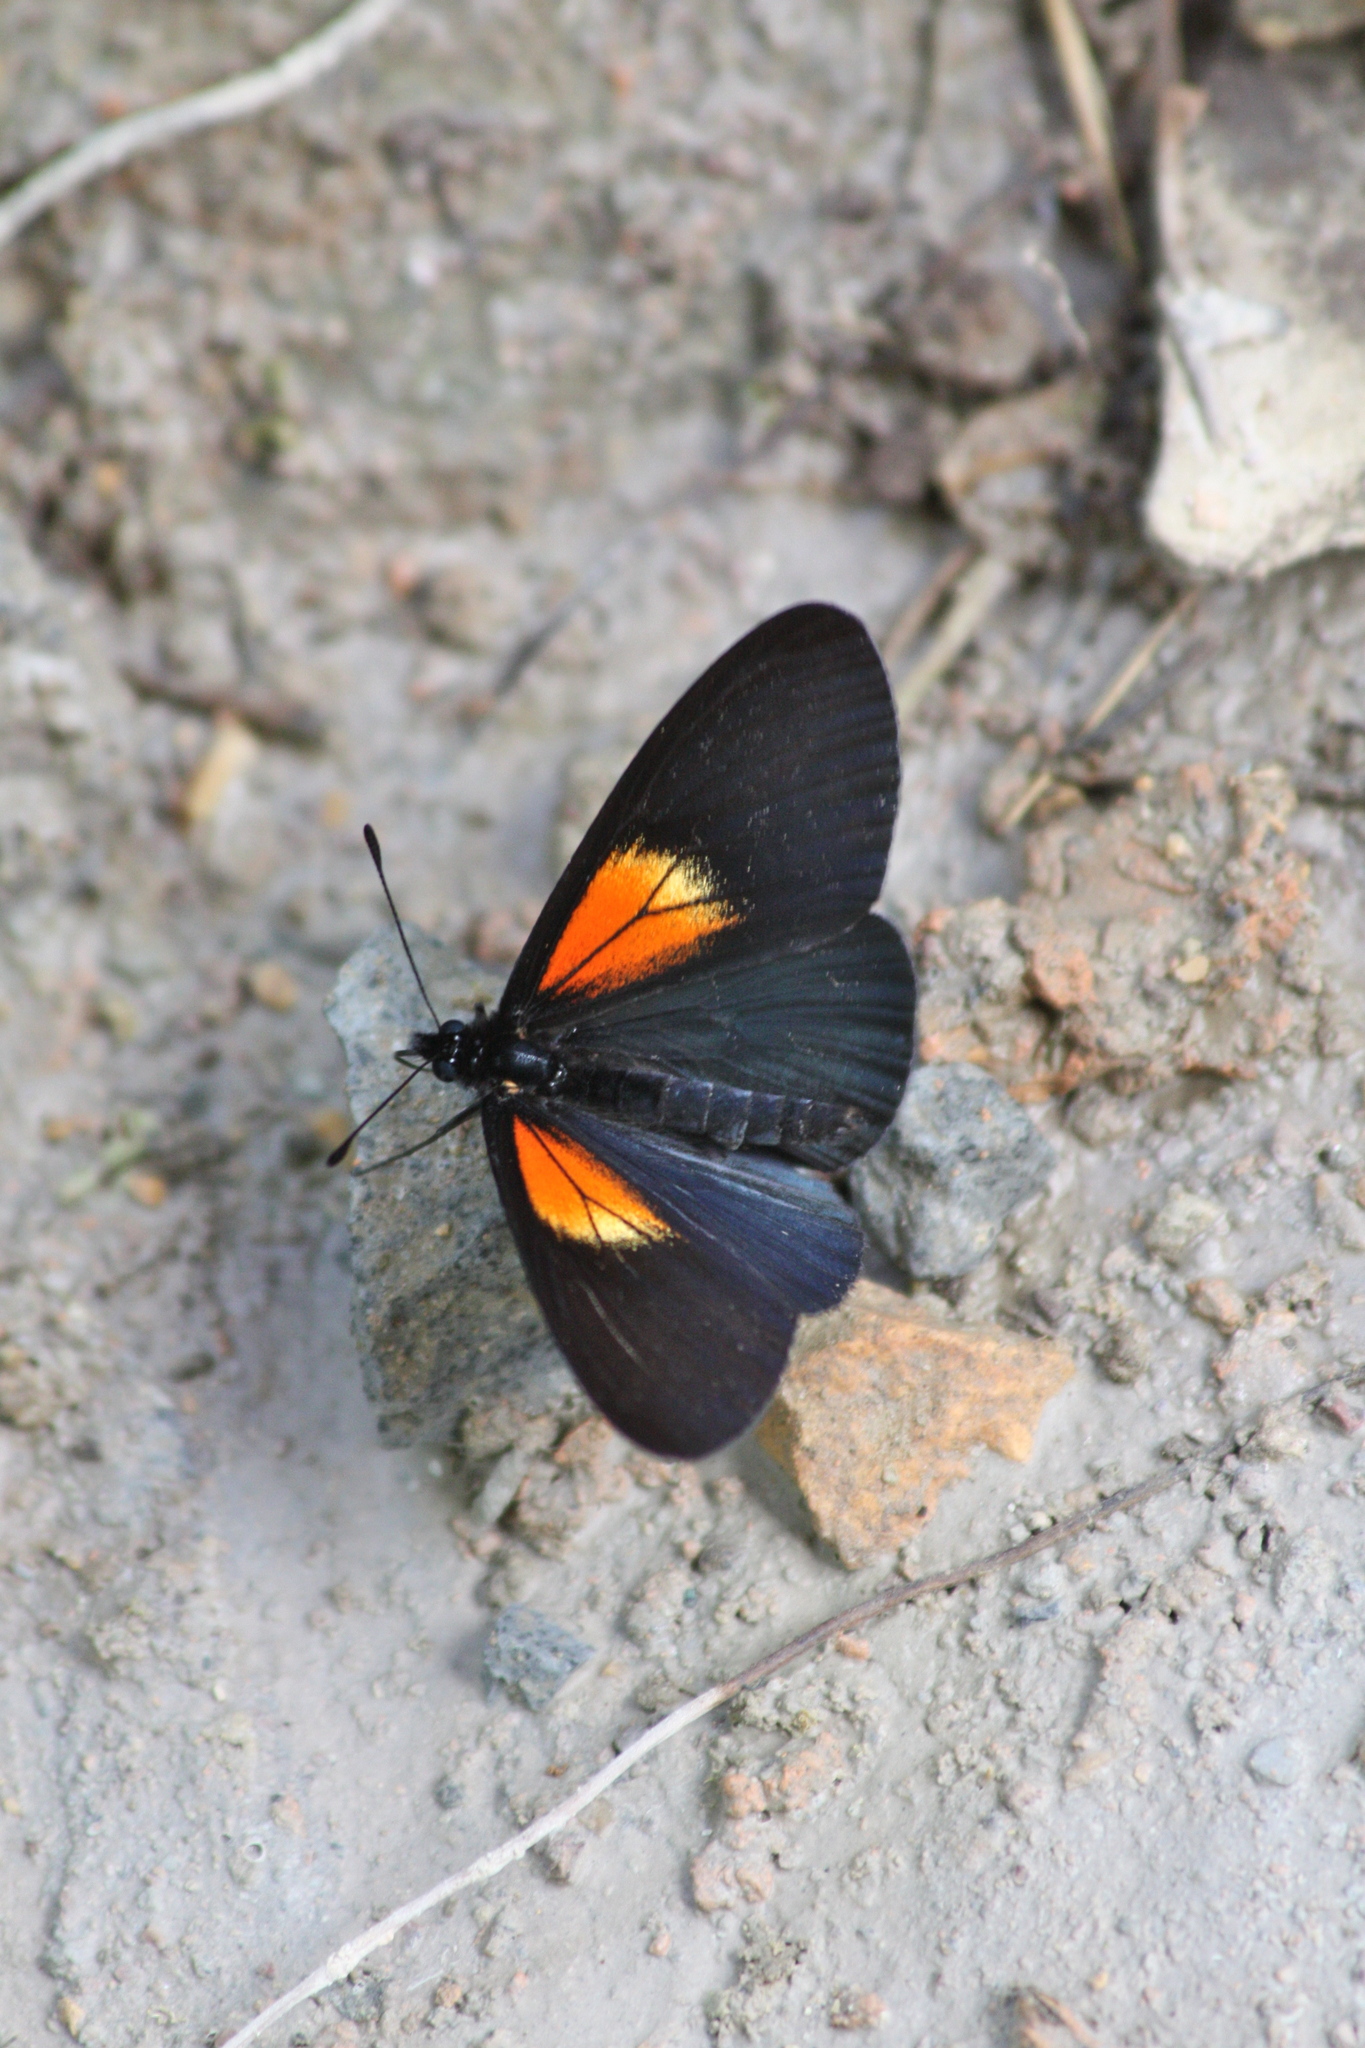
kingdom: Animalia
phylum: Arthropoda
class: Insecta
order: Lepidoptera
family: Nymphalidae
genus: Acraea
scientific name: Acraea Altinote ozomene
